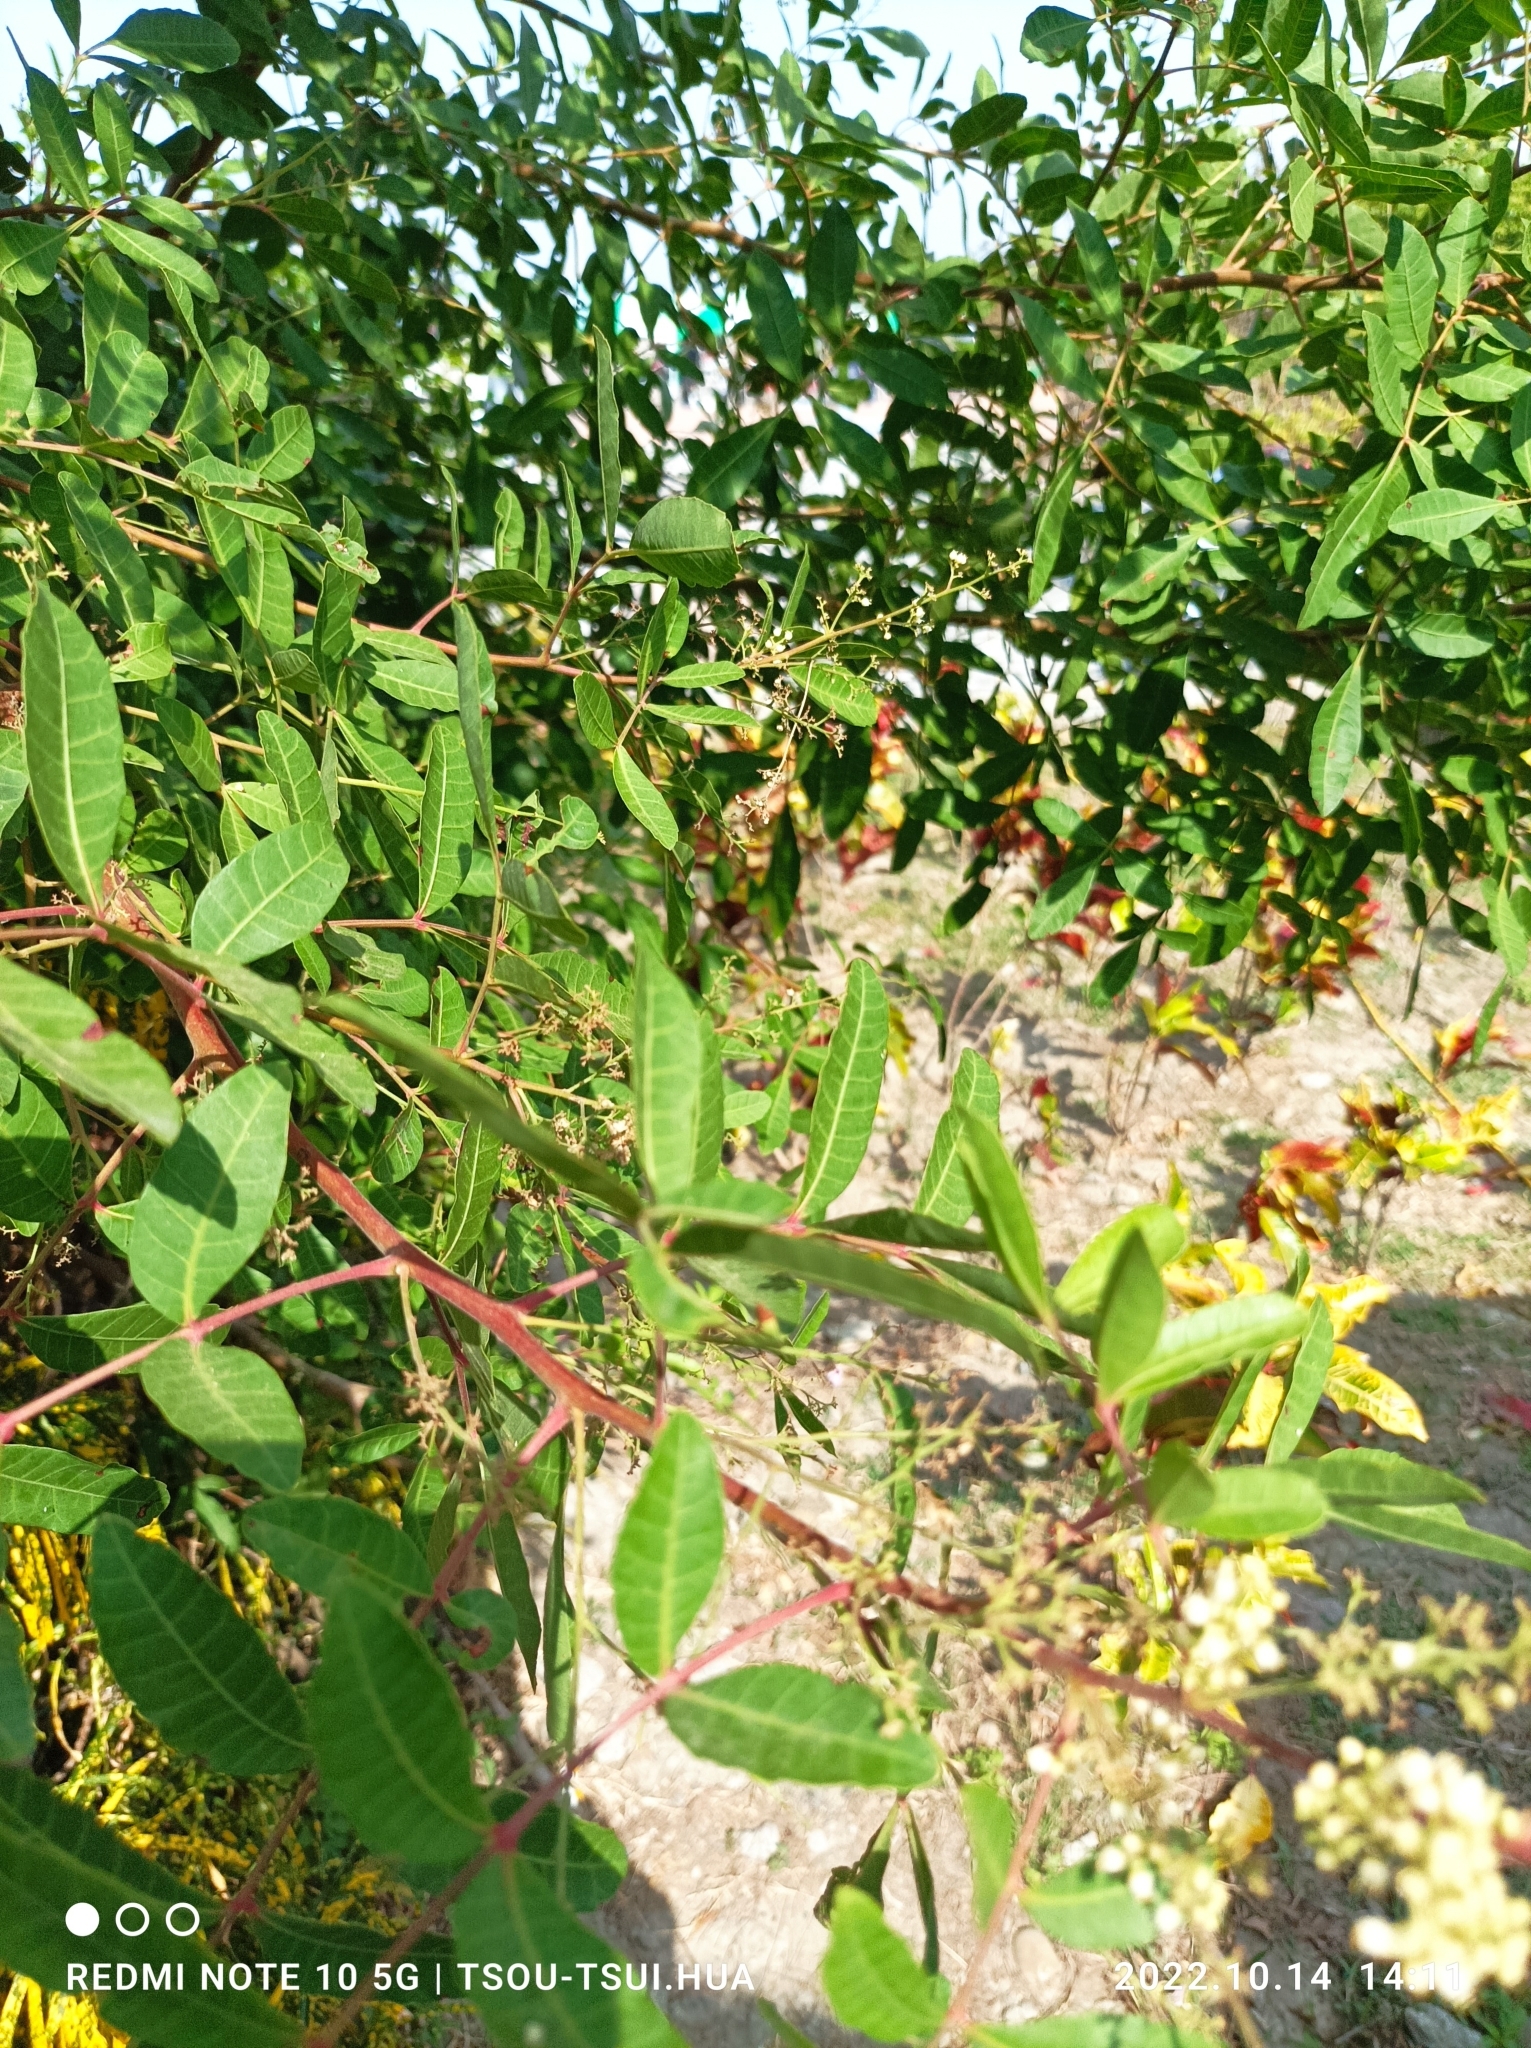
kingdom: Plantae
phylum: Tracheophyta
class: Magnoliopsida
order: Sapindales
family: Anacardiaceae
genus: Schinus
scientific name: Schinus terebinthifolia
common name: Brazilian peppertree
